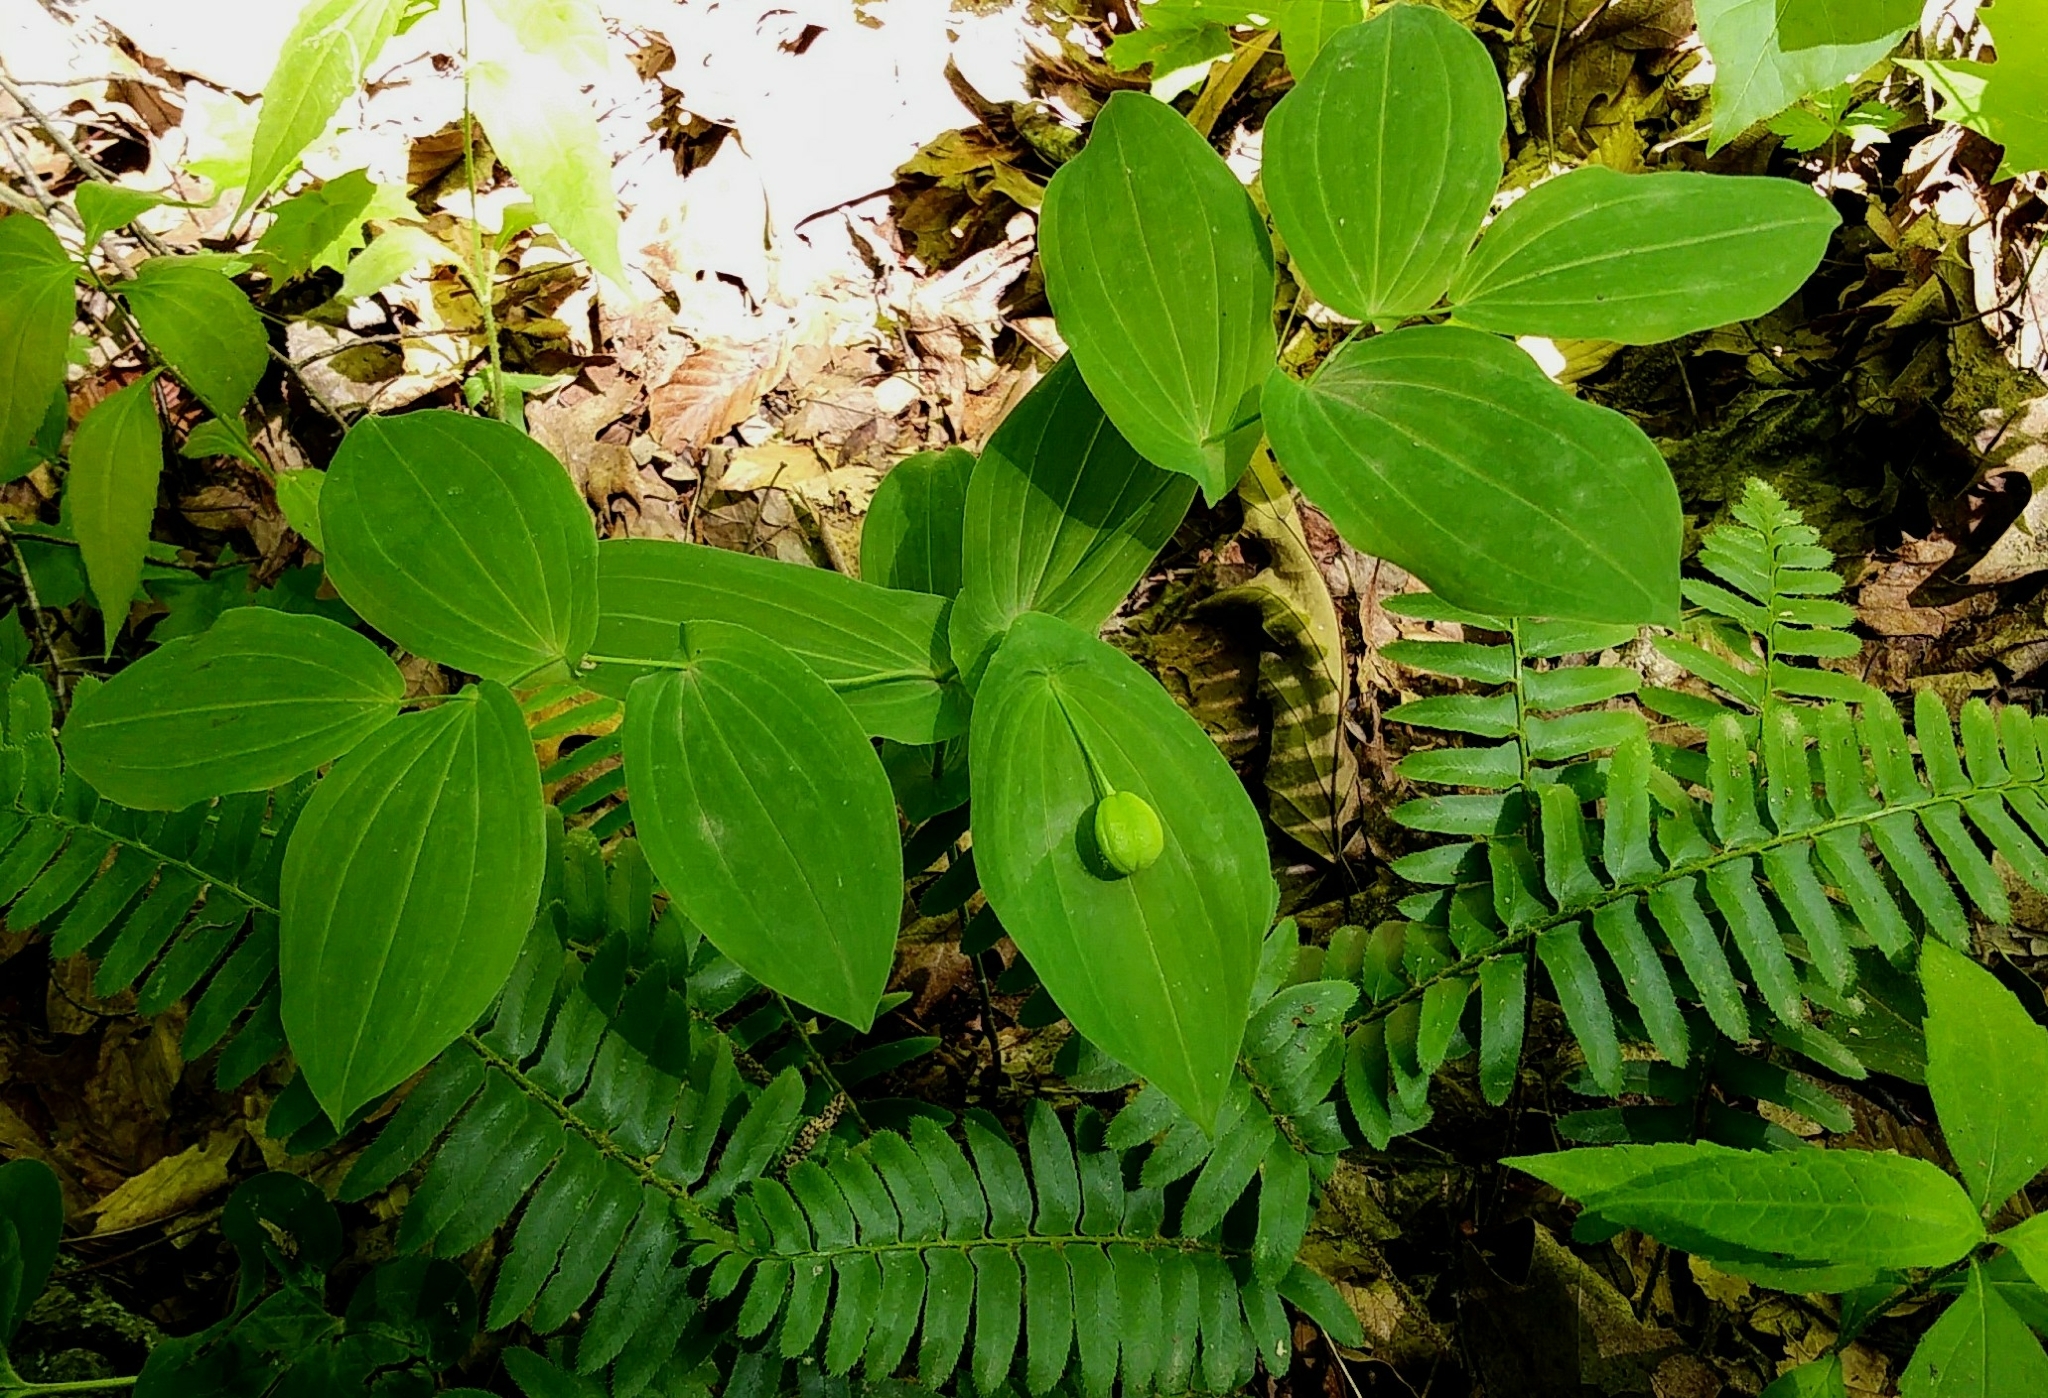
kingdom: Plantae
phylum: Tracheophyta
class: Liliopsida
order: Liliales
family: Colchicaceae
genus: Uvularia
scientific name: Uvularia grandiflora
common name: Bellwort
